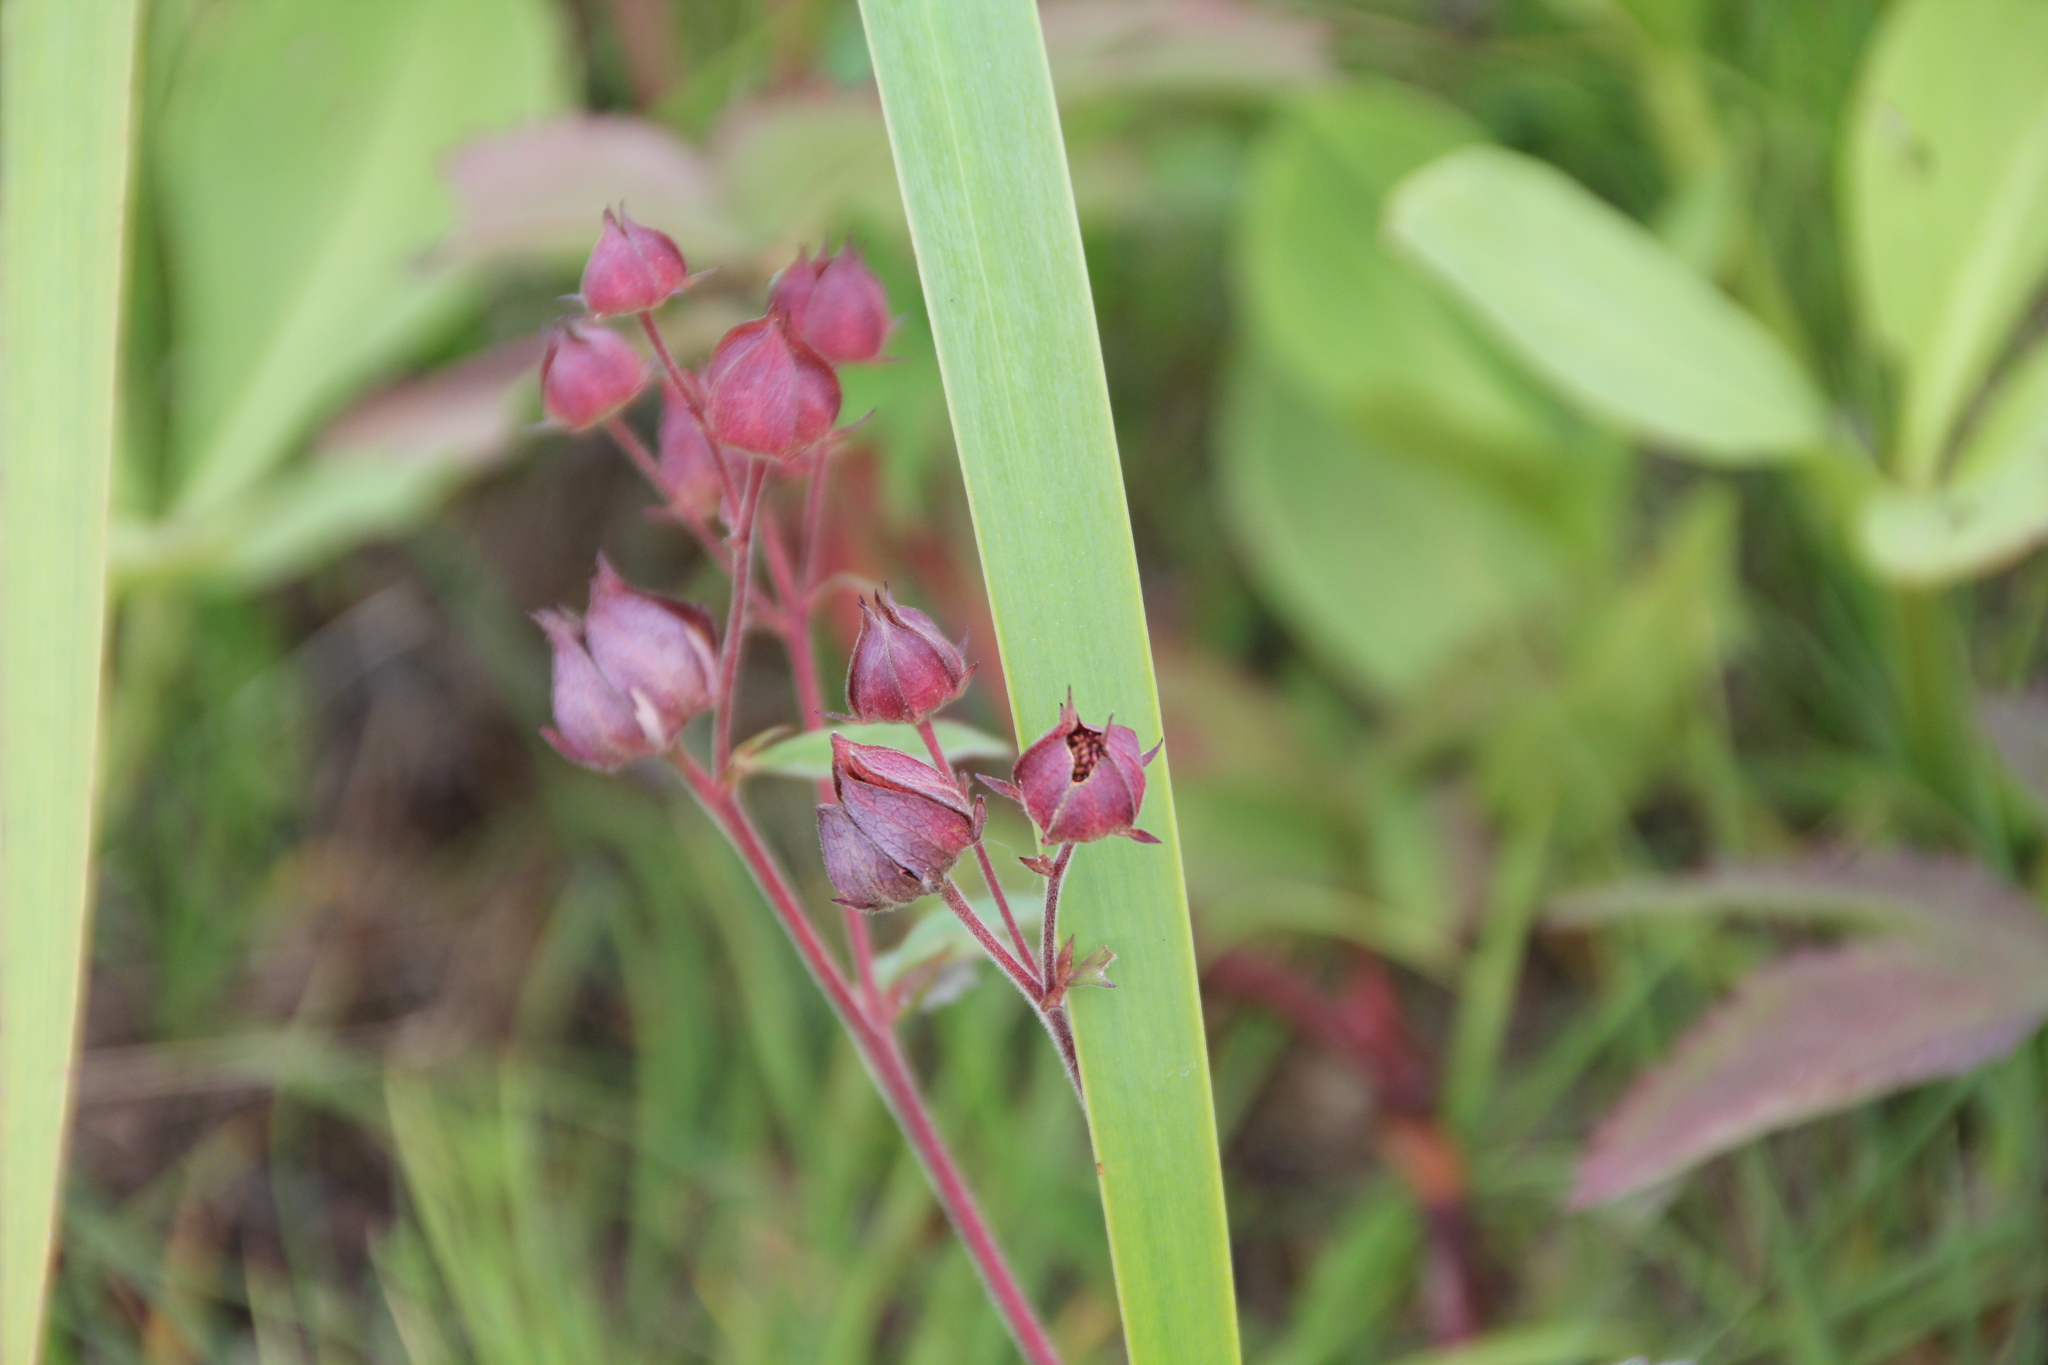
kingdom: Plantae
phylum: Tracheophyta
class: Magnoliopsida
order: Rosales
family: Rosaceae
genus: Comarum
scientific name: Comarum palustre
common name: Marsh cinquefoil
